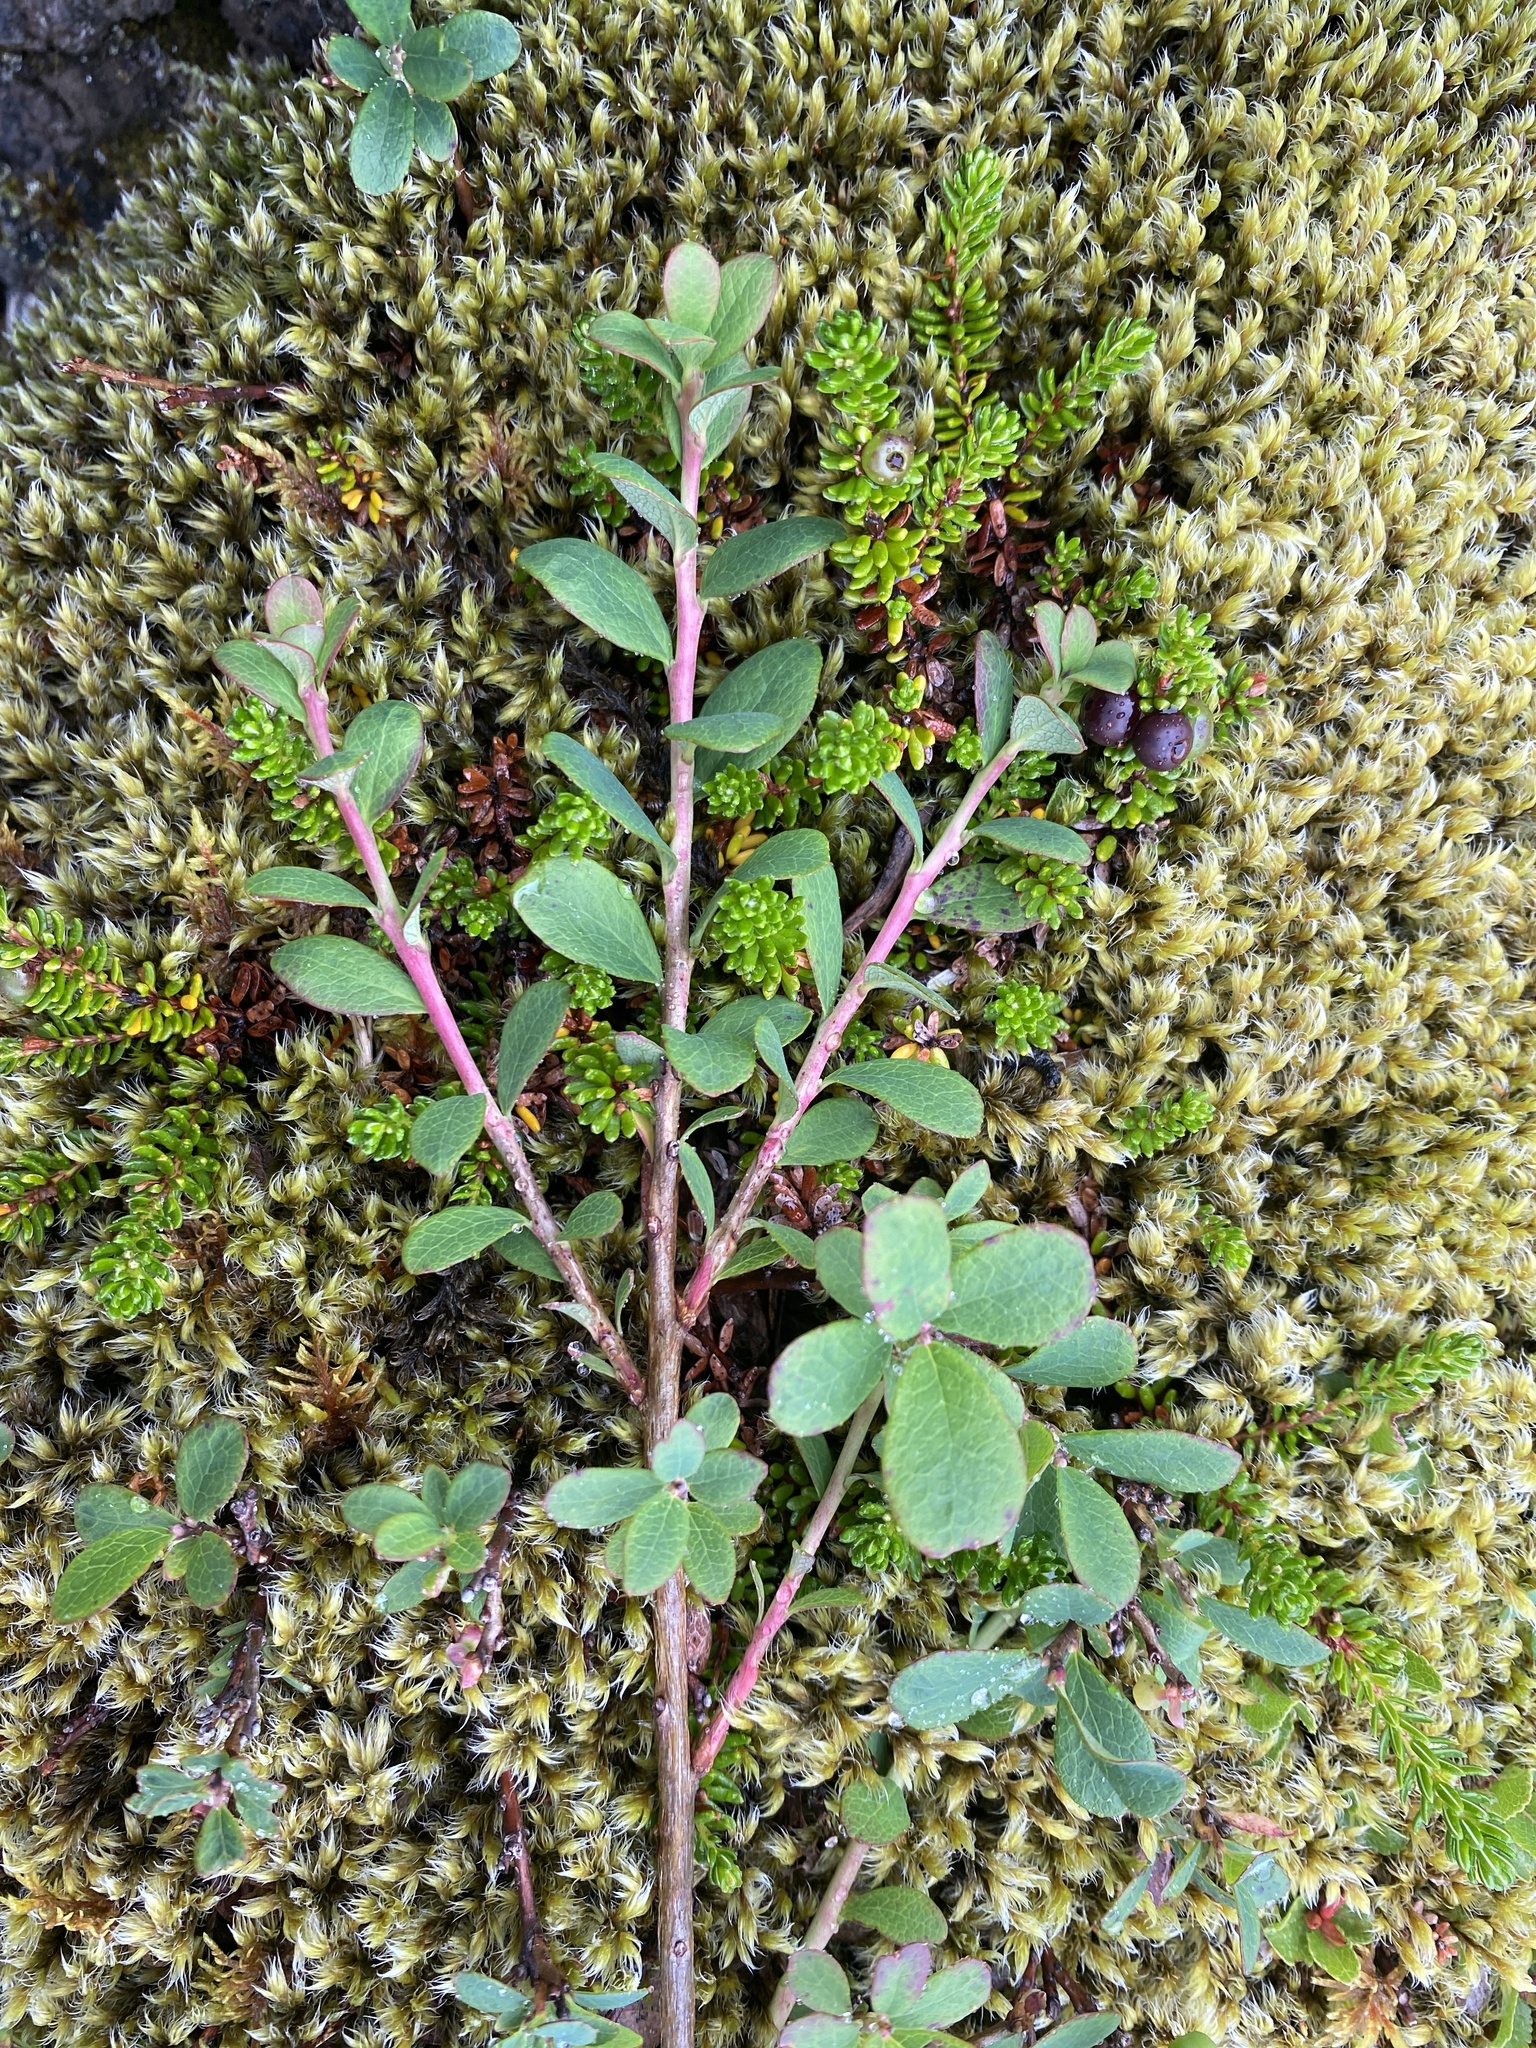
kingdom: Plantae
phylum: Tracheophyta
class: Magnoliopsida
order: Ericales
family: Ericaceae
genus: Vaccinium
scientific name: Vaccinium uliginosum
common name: Bog bilberry
